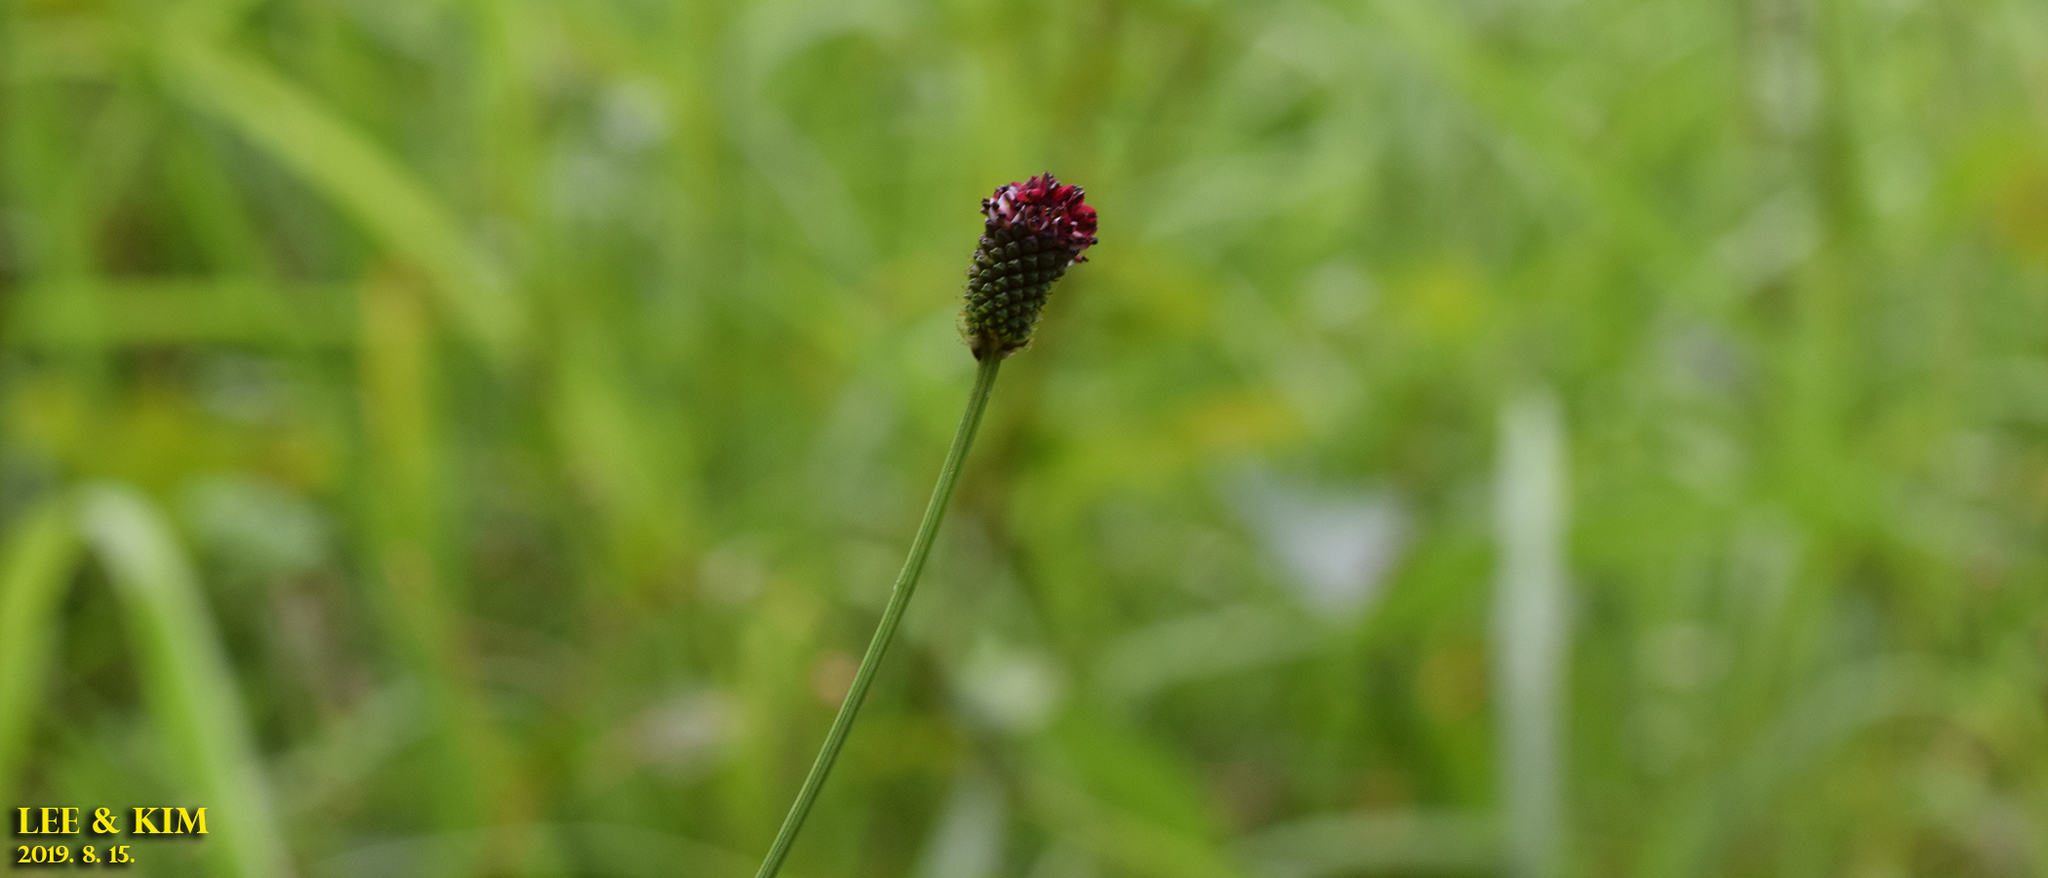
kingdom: Plantae
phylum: Tracheophyta
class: Magnoliopsida
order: Rosales
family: Rosaceae
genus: Sanguisorba
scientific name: Sanguisorba officinalis
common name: Great burnet
